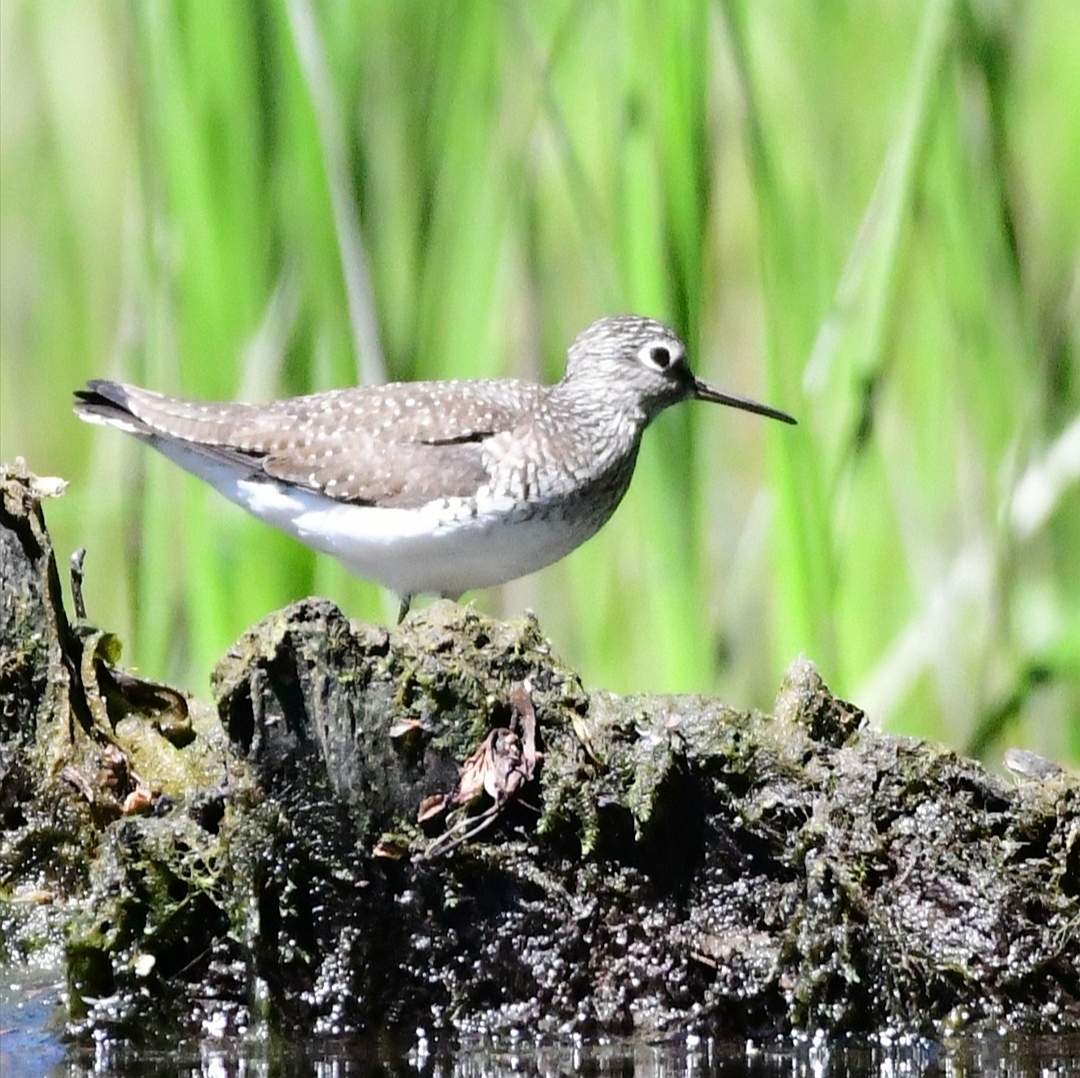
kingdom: Animalia
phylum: Chordata
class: Aves
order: Charadriiformes
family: Scolopacidae
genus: Tringa
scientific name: Tringa solitaria
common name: Solitary sandpiper
